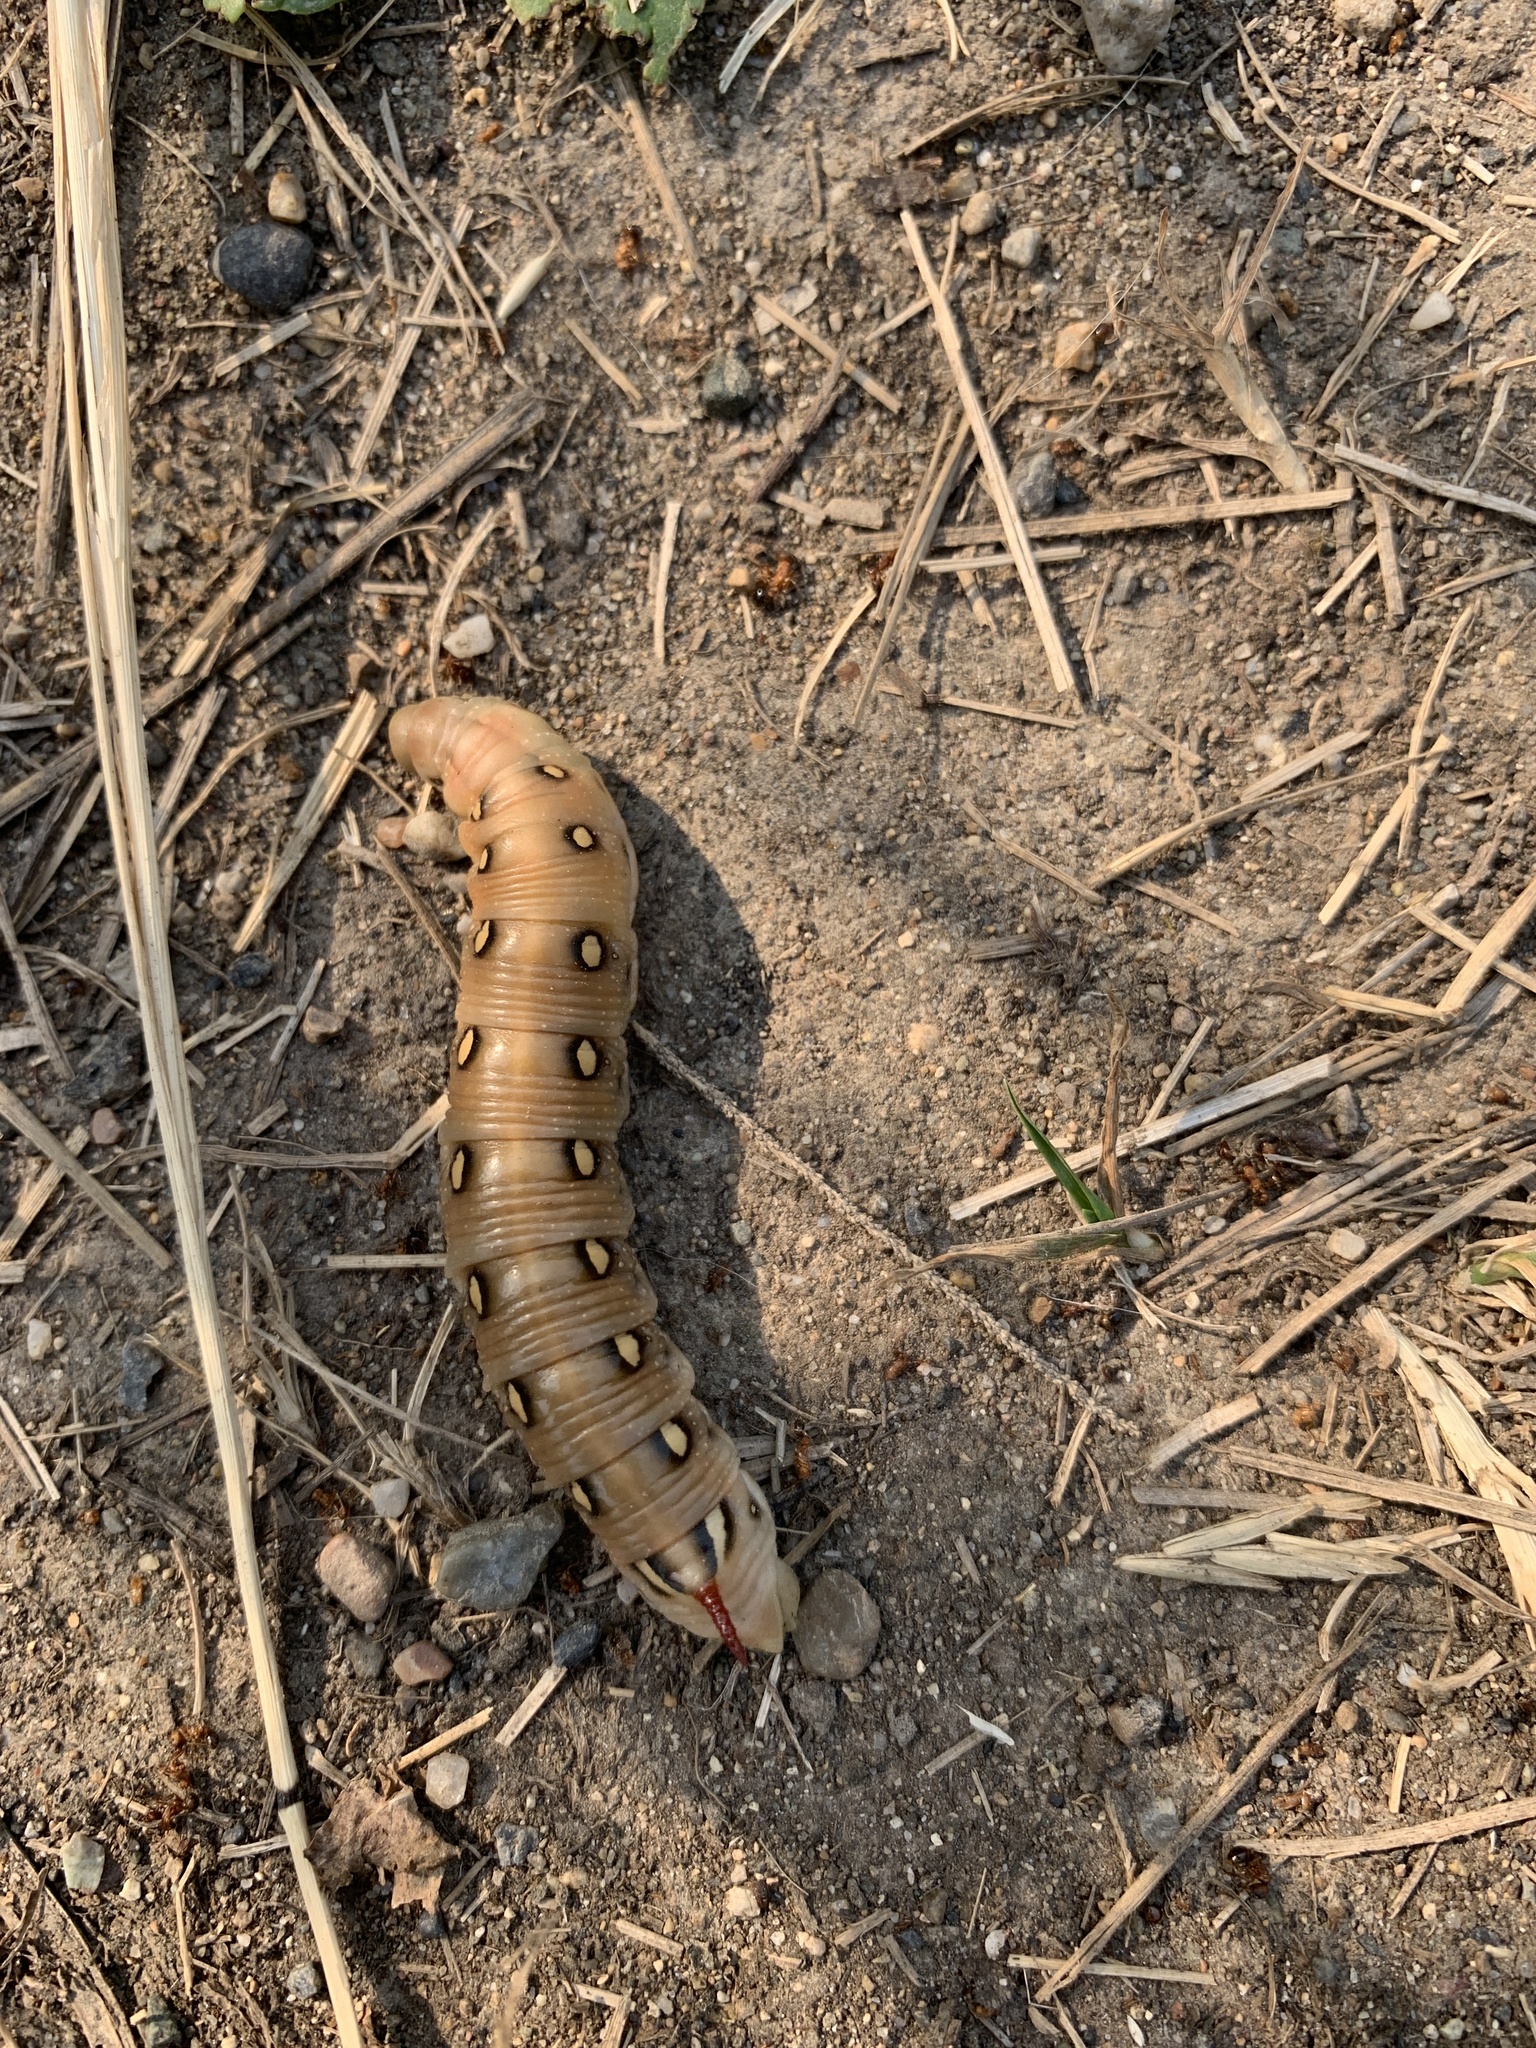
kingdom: Animalia
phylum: Arthropoda
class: Insecta
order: Lepidoptera
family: Sphingidae
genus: Hyles
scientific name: Hyles gallii
